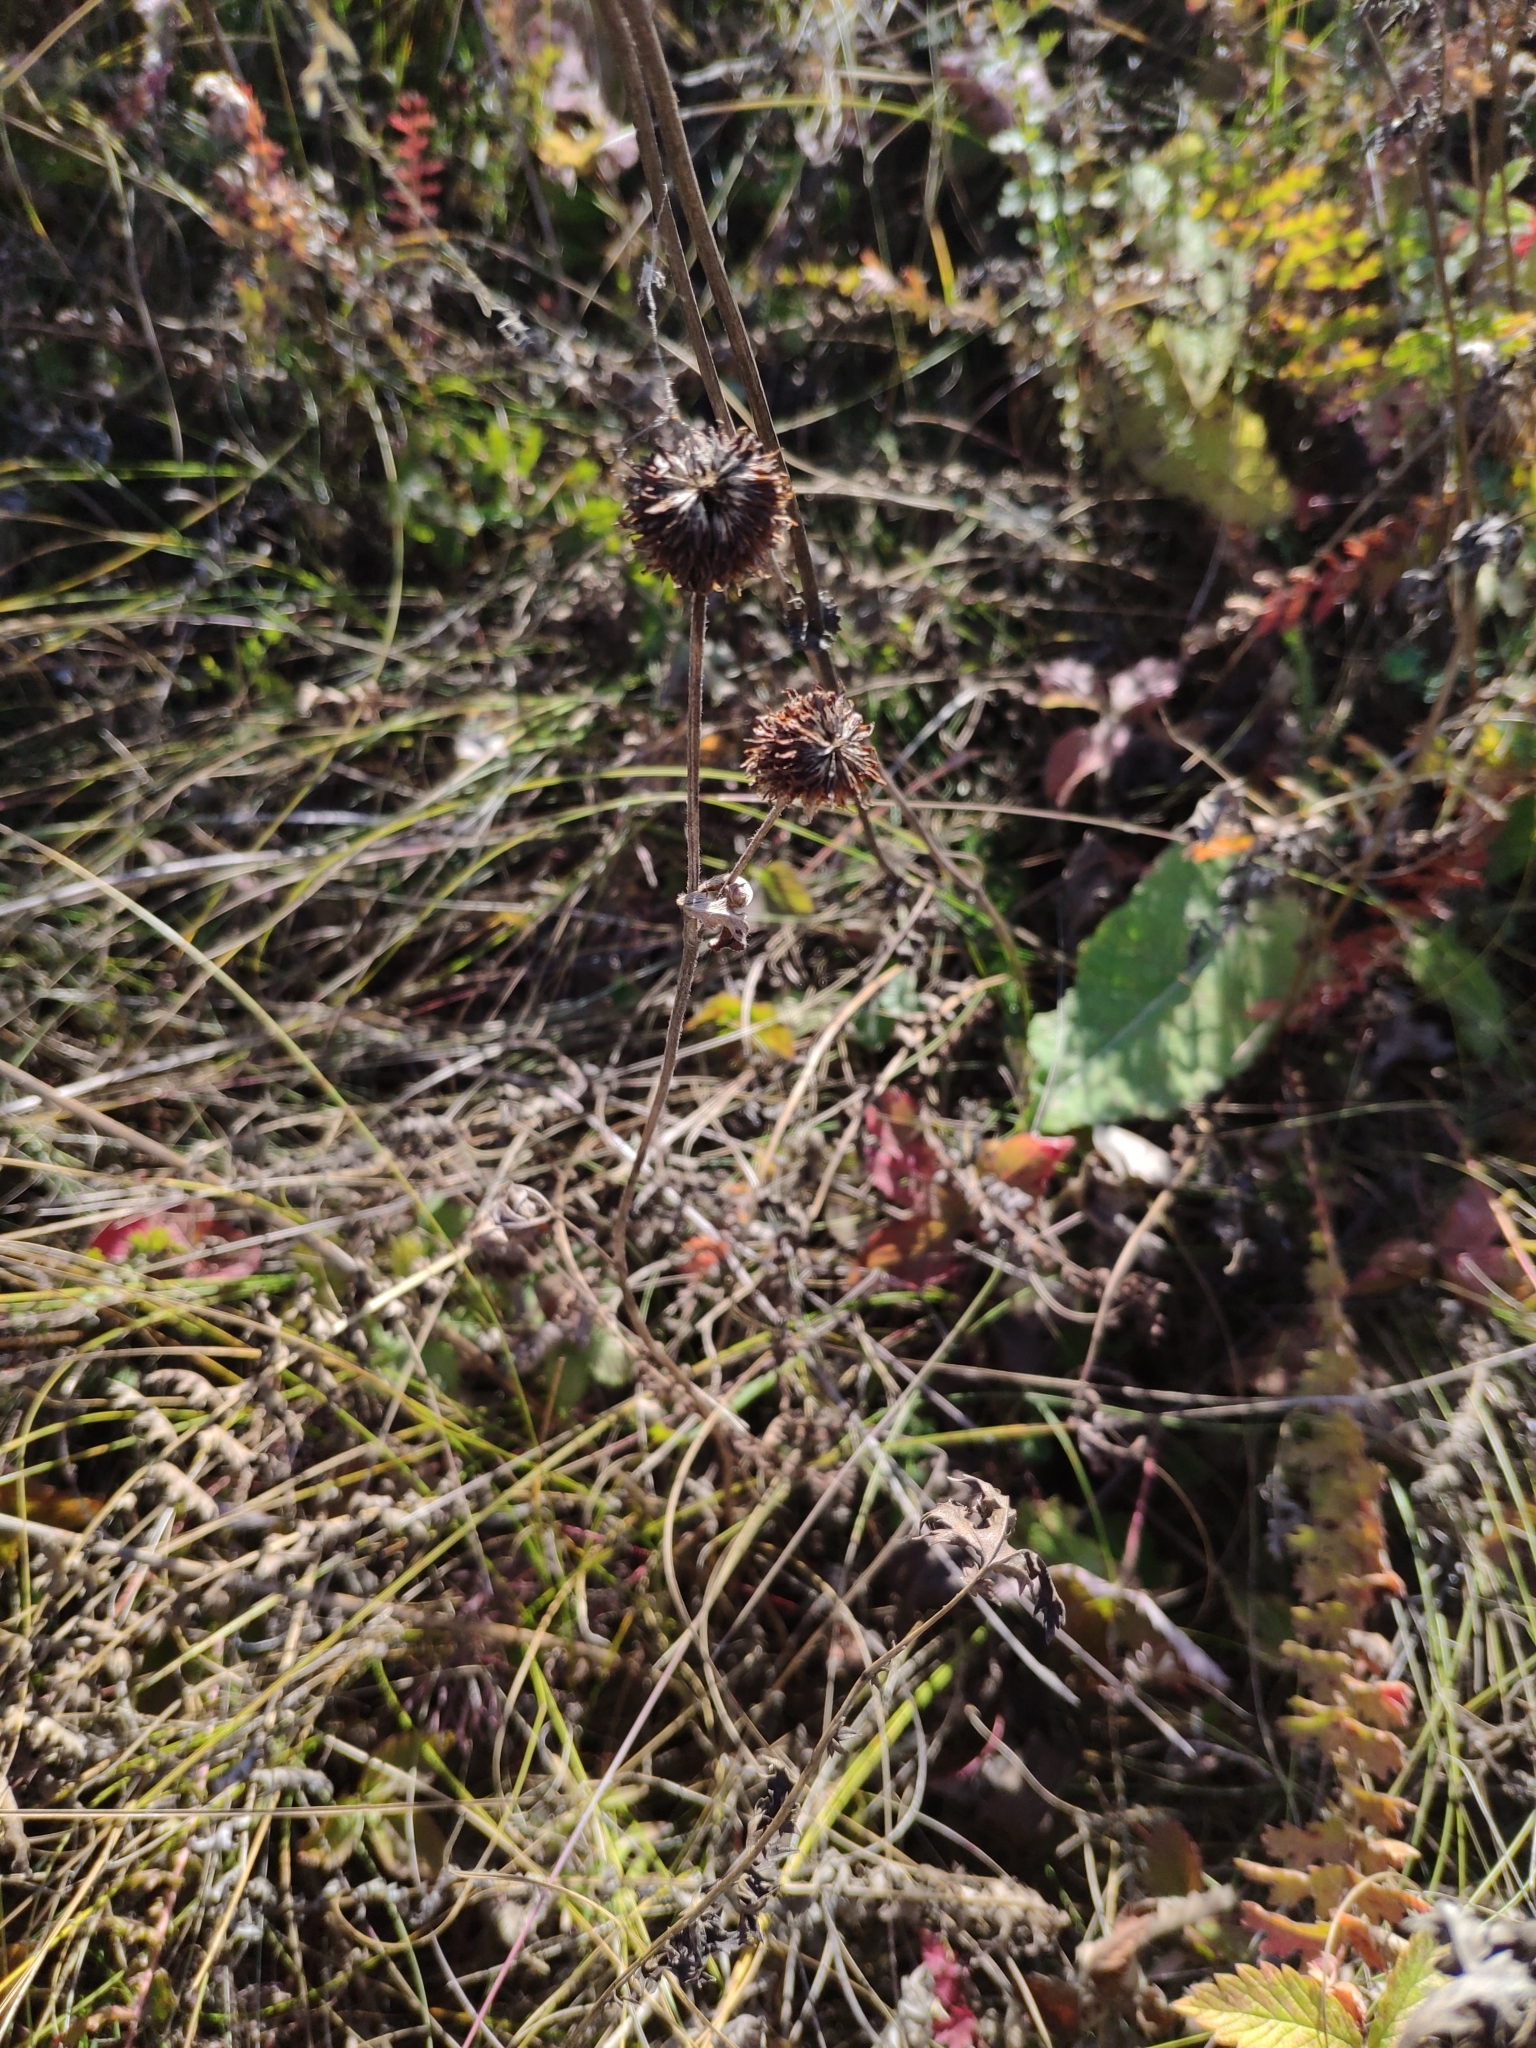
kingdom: Plantae
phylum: Tracheophyta
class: Magnoliopsida
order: Fabales
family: Fabaceae
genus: Trifolium
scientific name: Trifolium montanum
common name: Mountain clover
